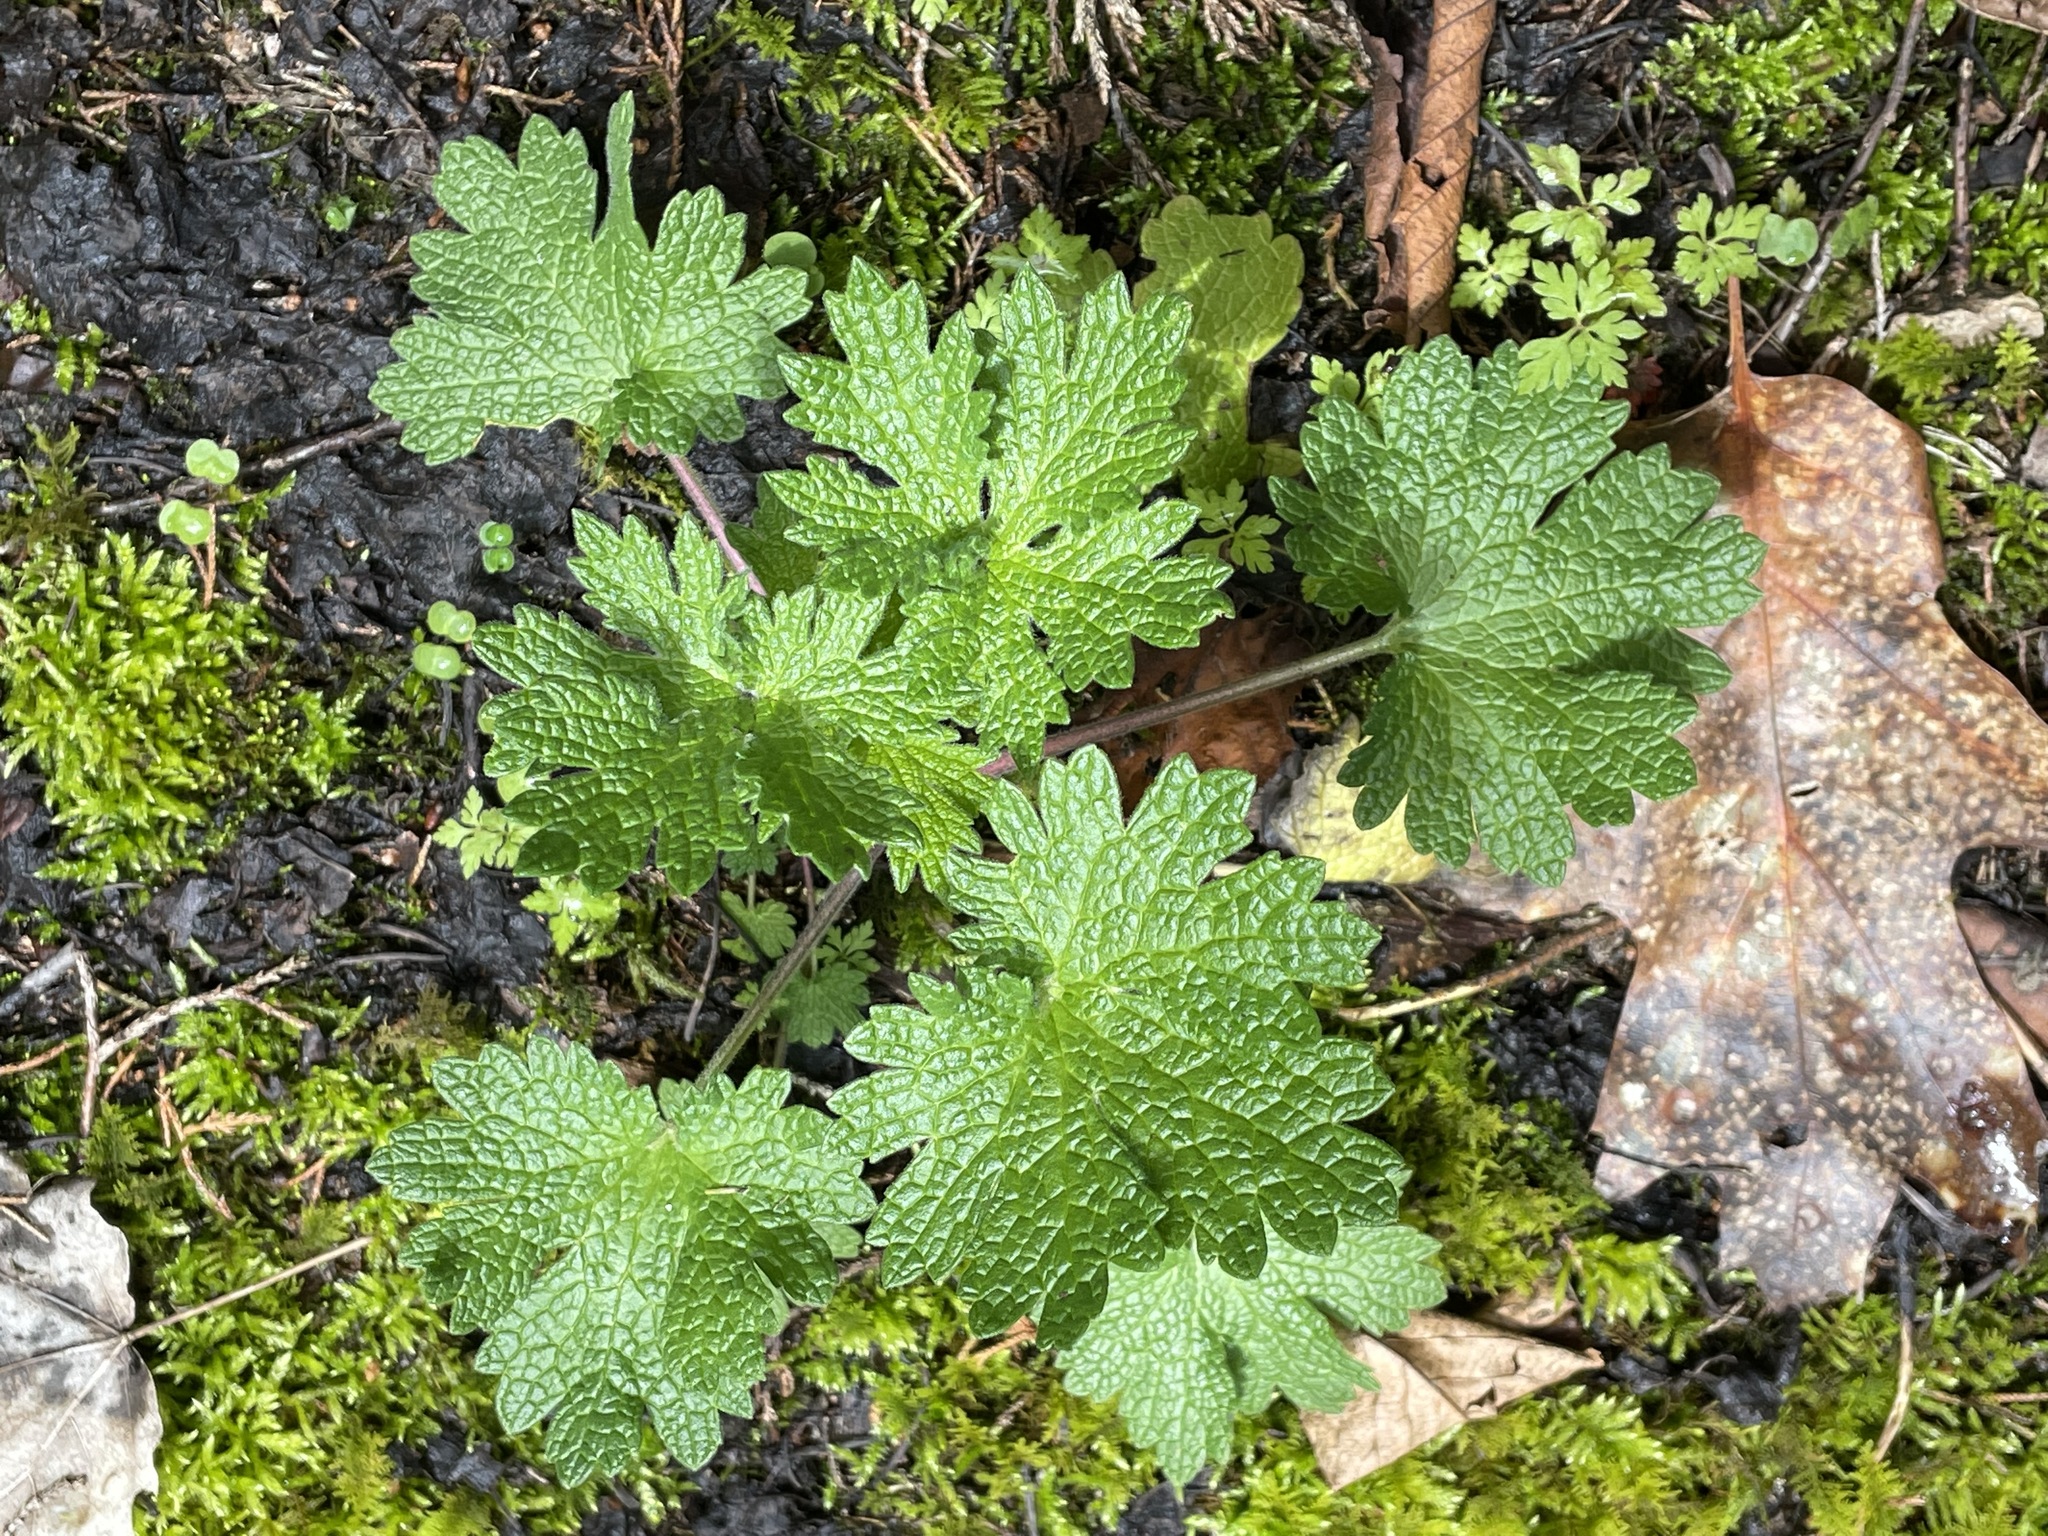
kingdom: Plantae
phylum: Tracheophyta
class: Magnoliopsida
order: Lamiales
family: Lamiaceae
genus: Leonurus
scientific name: Leonurus cardiaca
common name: Motherwort
